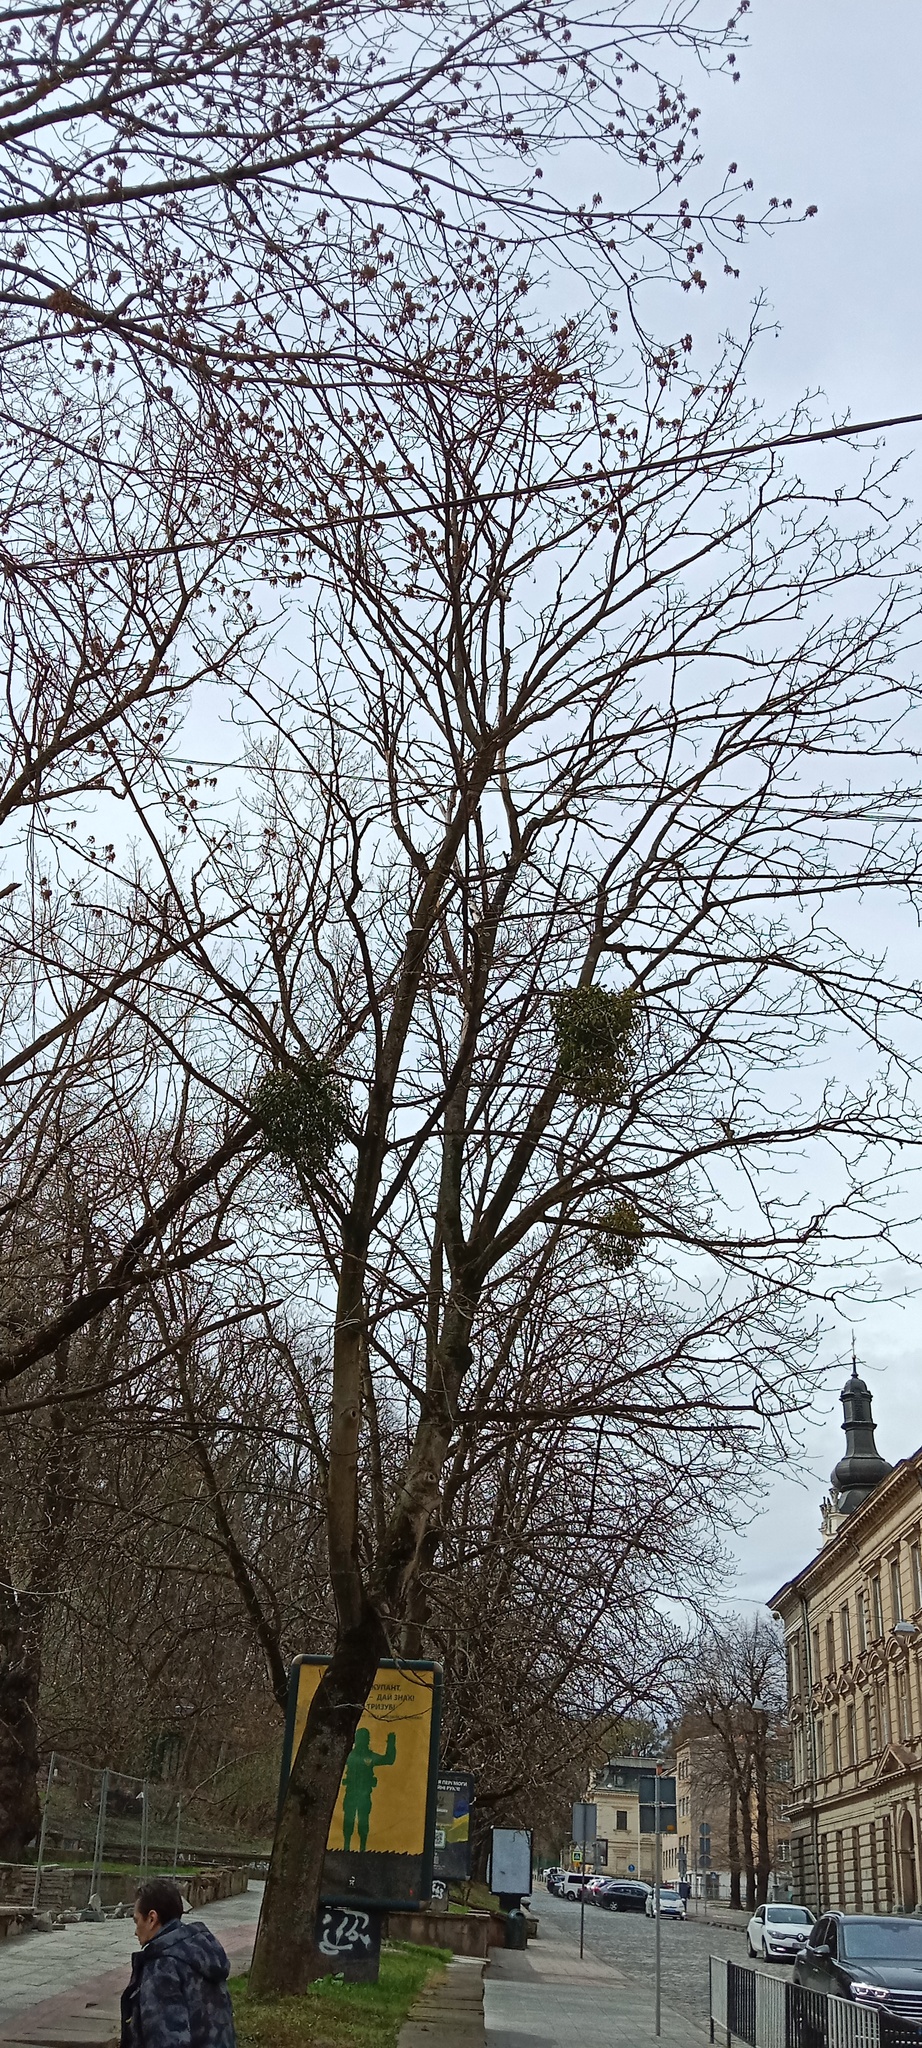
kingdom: Plantae
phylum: Tracheophyta
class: Magnoliopsida
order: Santalales
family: Viscaceae
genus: Viscum
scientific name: Viscum album
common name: Mistletoe
